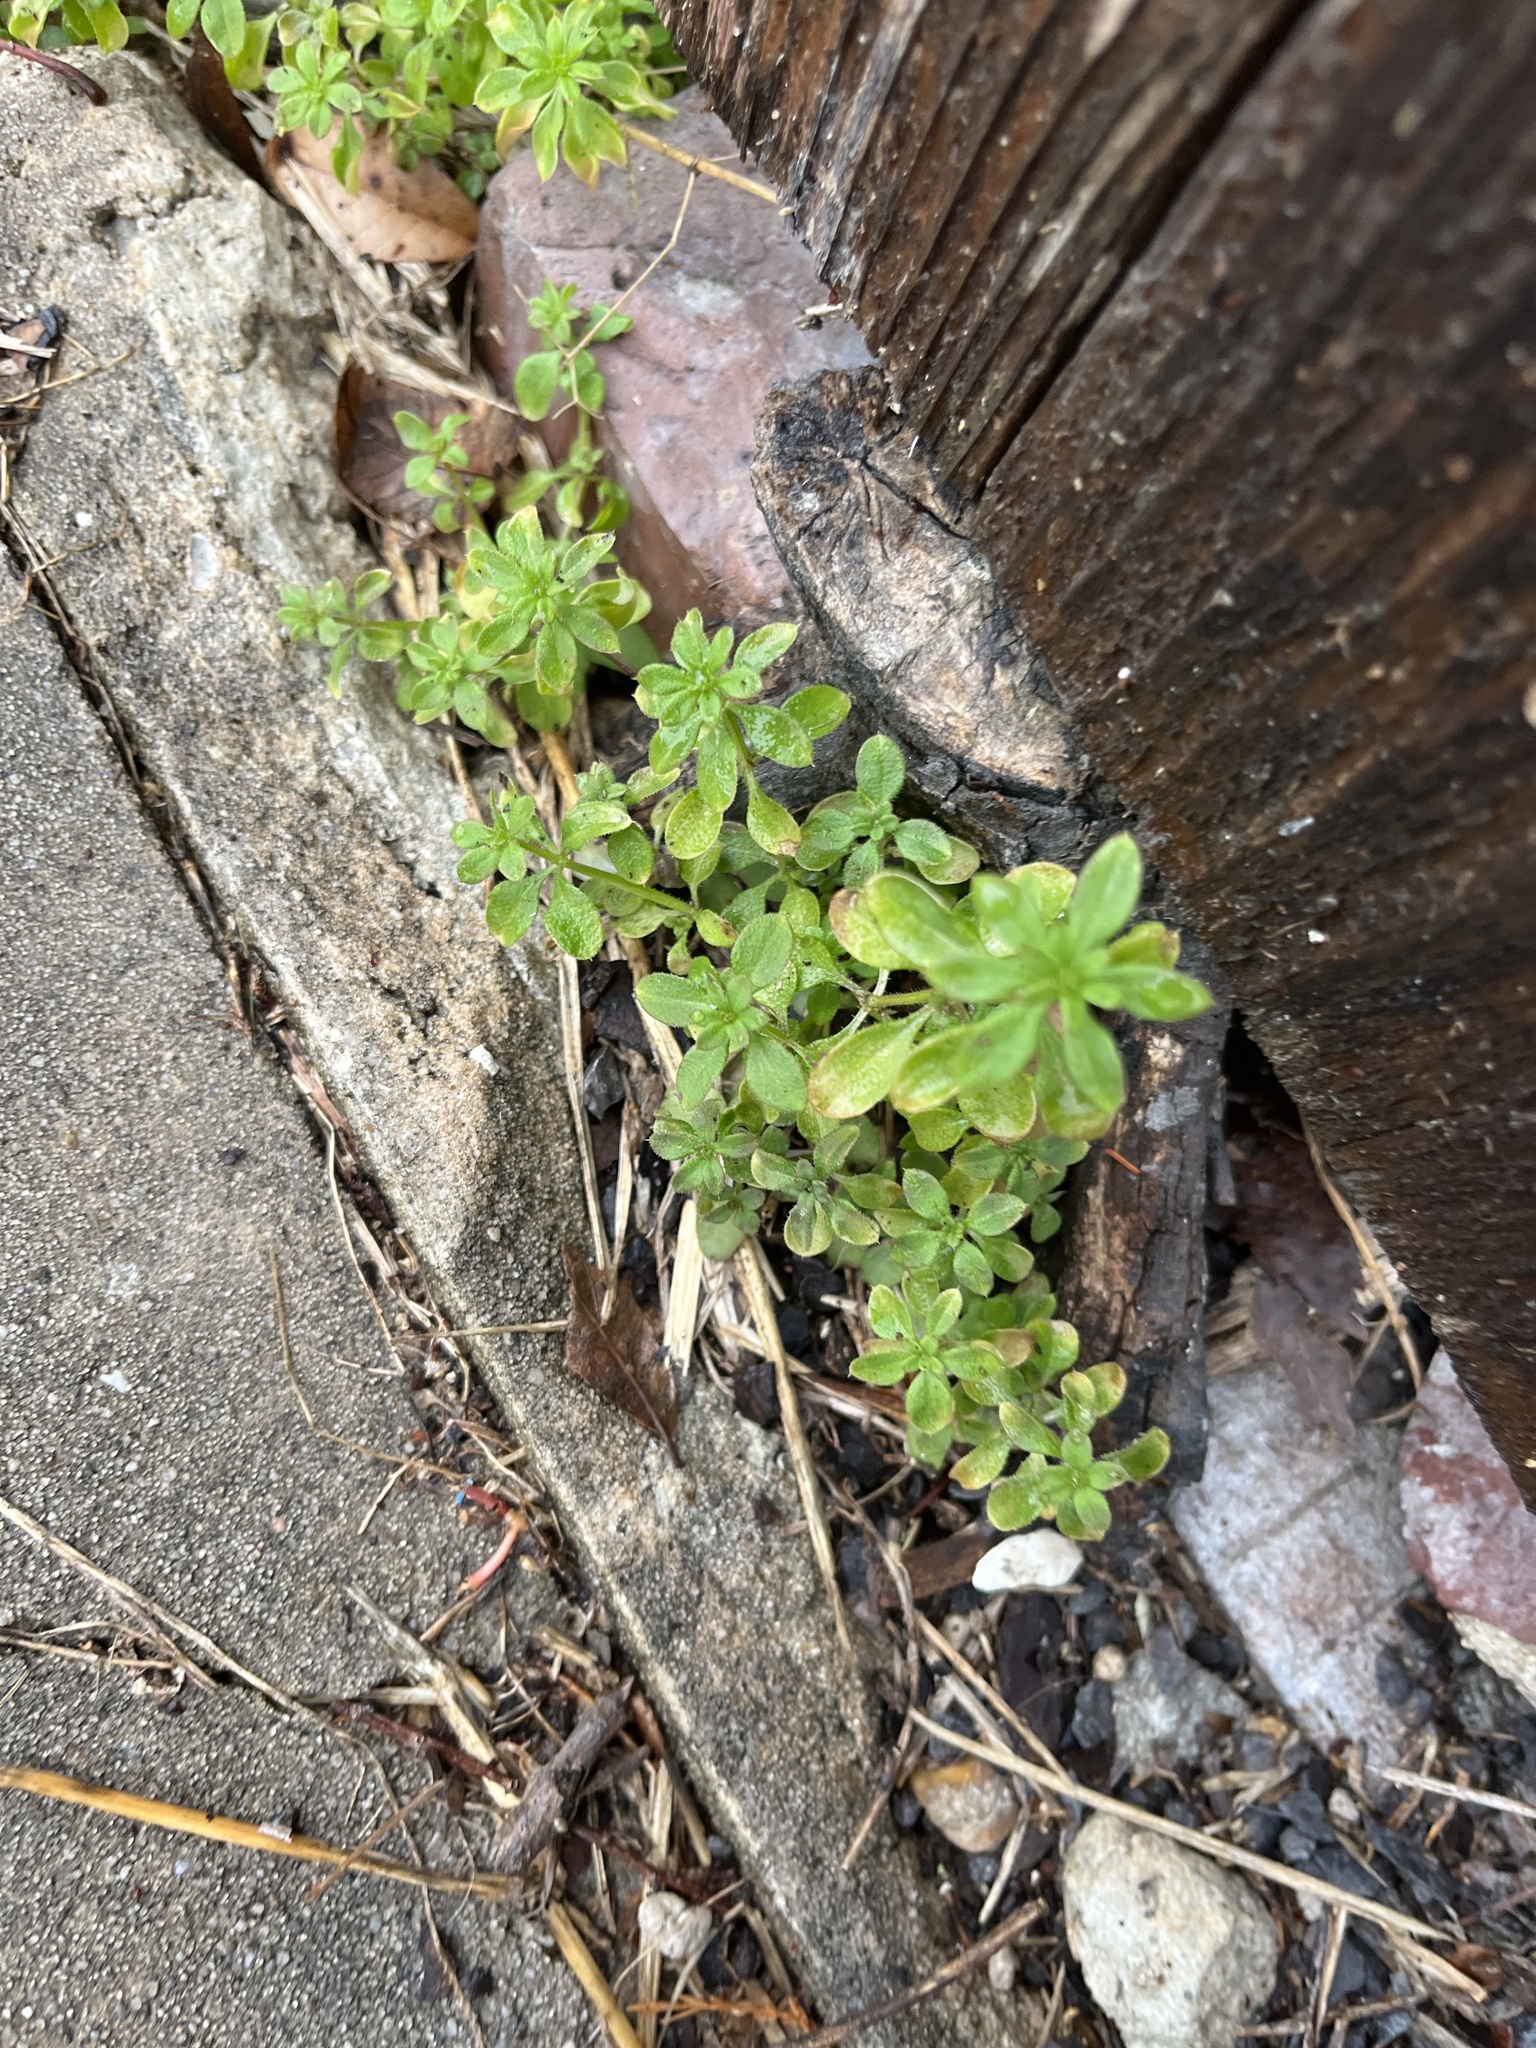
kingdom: Plantae
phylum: Tracheophyta
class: Magnoliopsida
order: Gentianales
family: Rubiaceae
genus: Galium
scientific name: Galium aparine
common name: Cleavers
